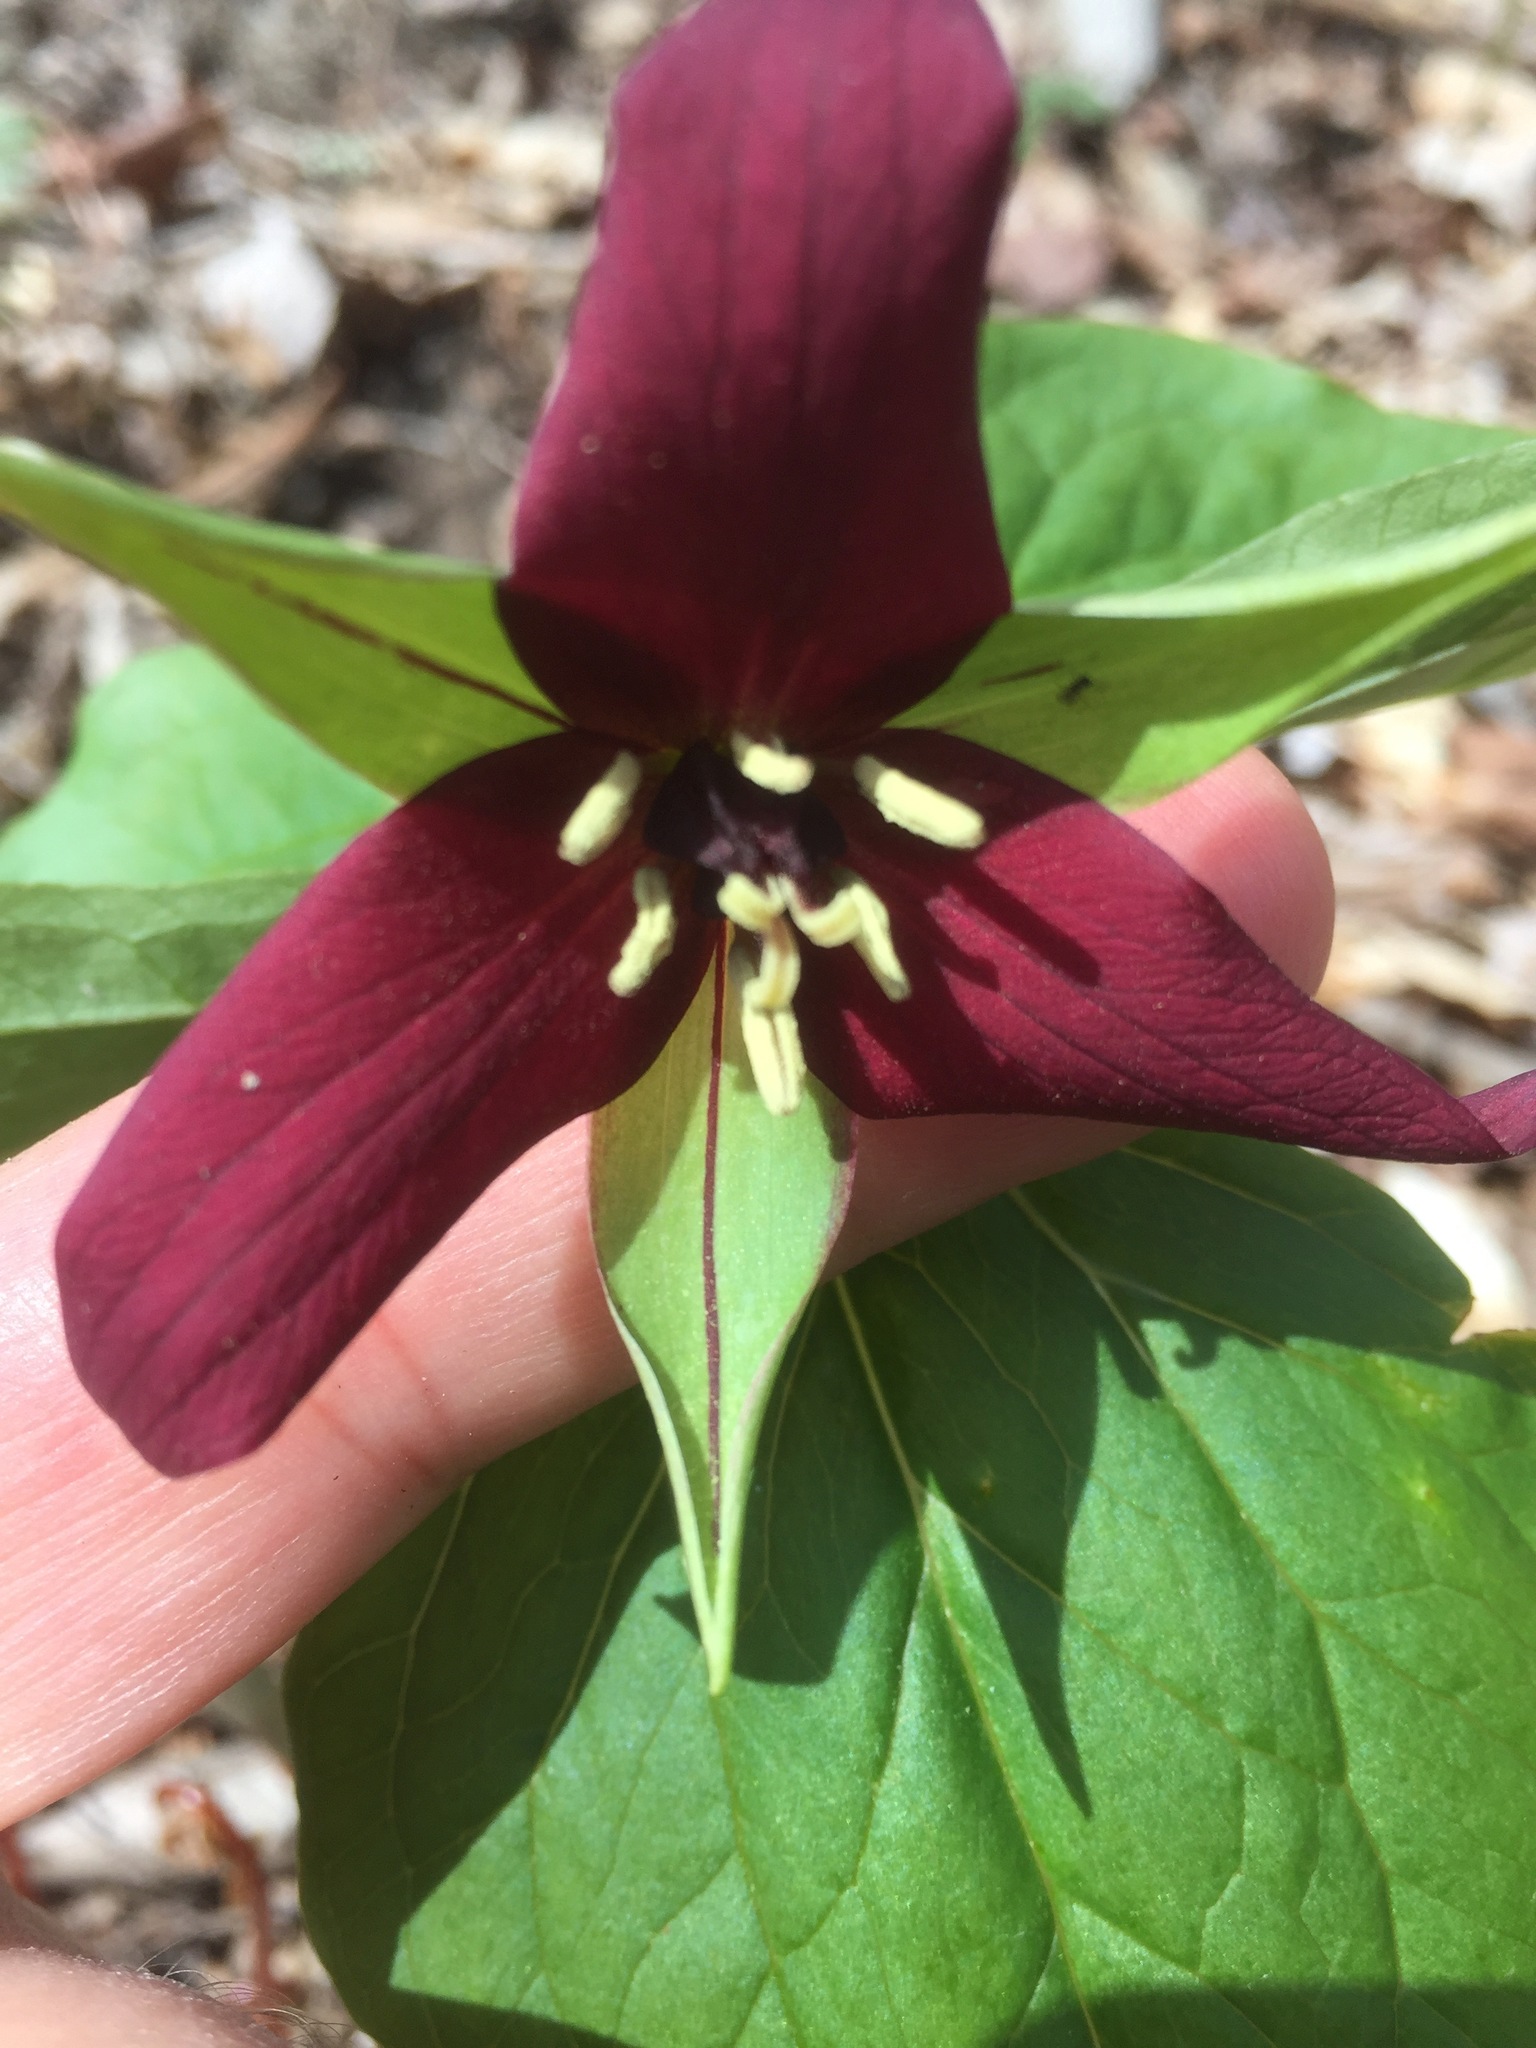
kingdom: Plantae
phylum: Tracheophyta
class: Liliopsida
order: Liliales
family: Melanthiaceae
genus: Trillium
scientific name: Trillium erectum
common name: Purple trillium
